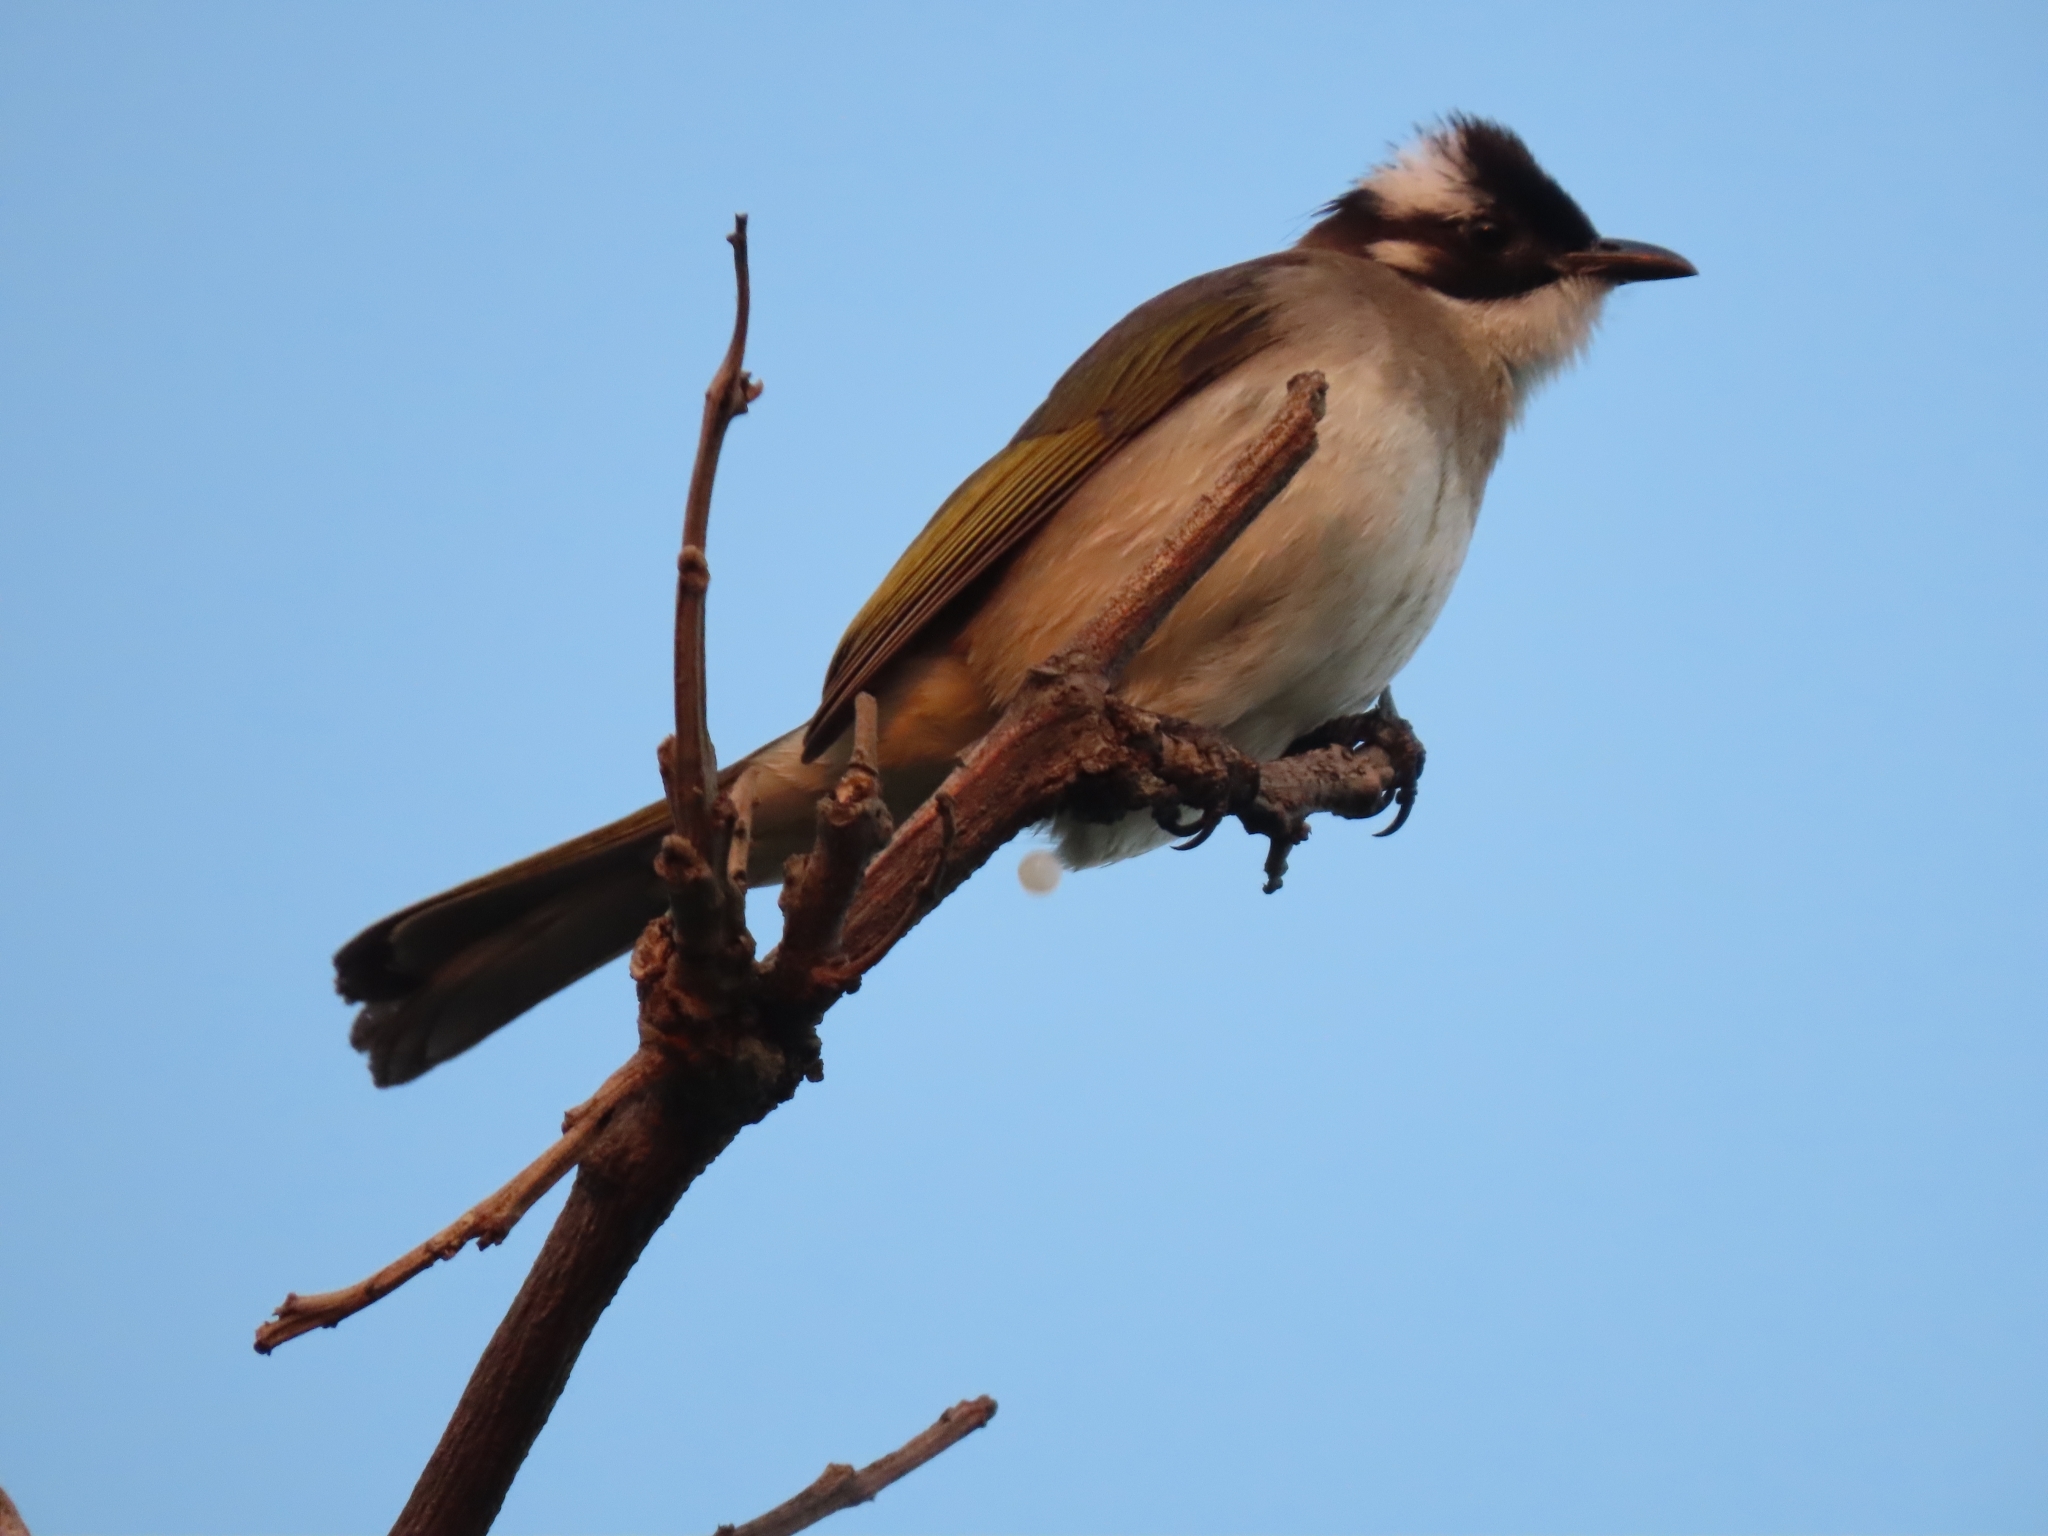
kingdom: Animalia
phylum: Chordata
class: Aves
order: Passeriformes
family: Pycnonotidae
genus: Pycnonotus
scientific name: Pycnonotus sinensis
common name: Light-vented bulbul
